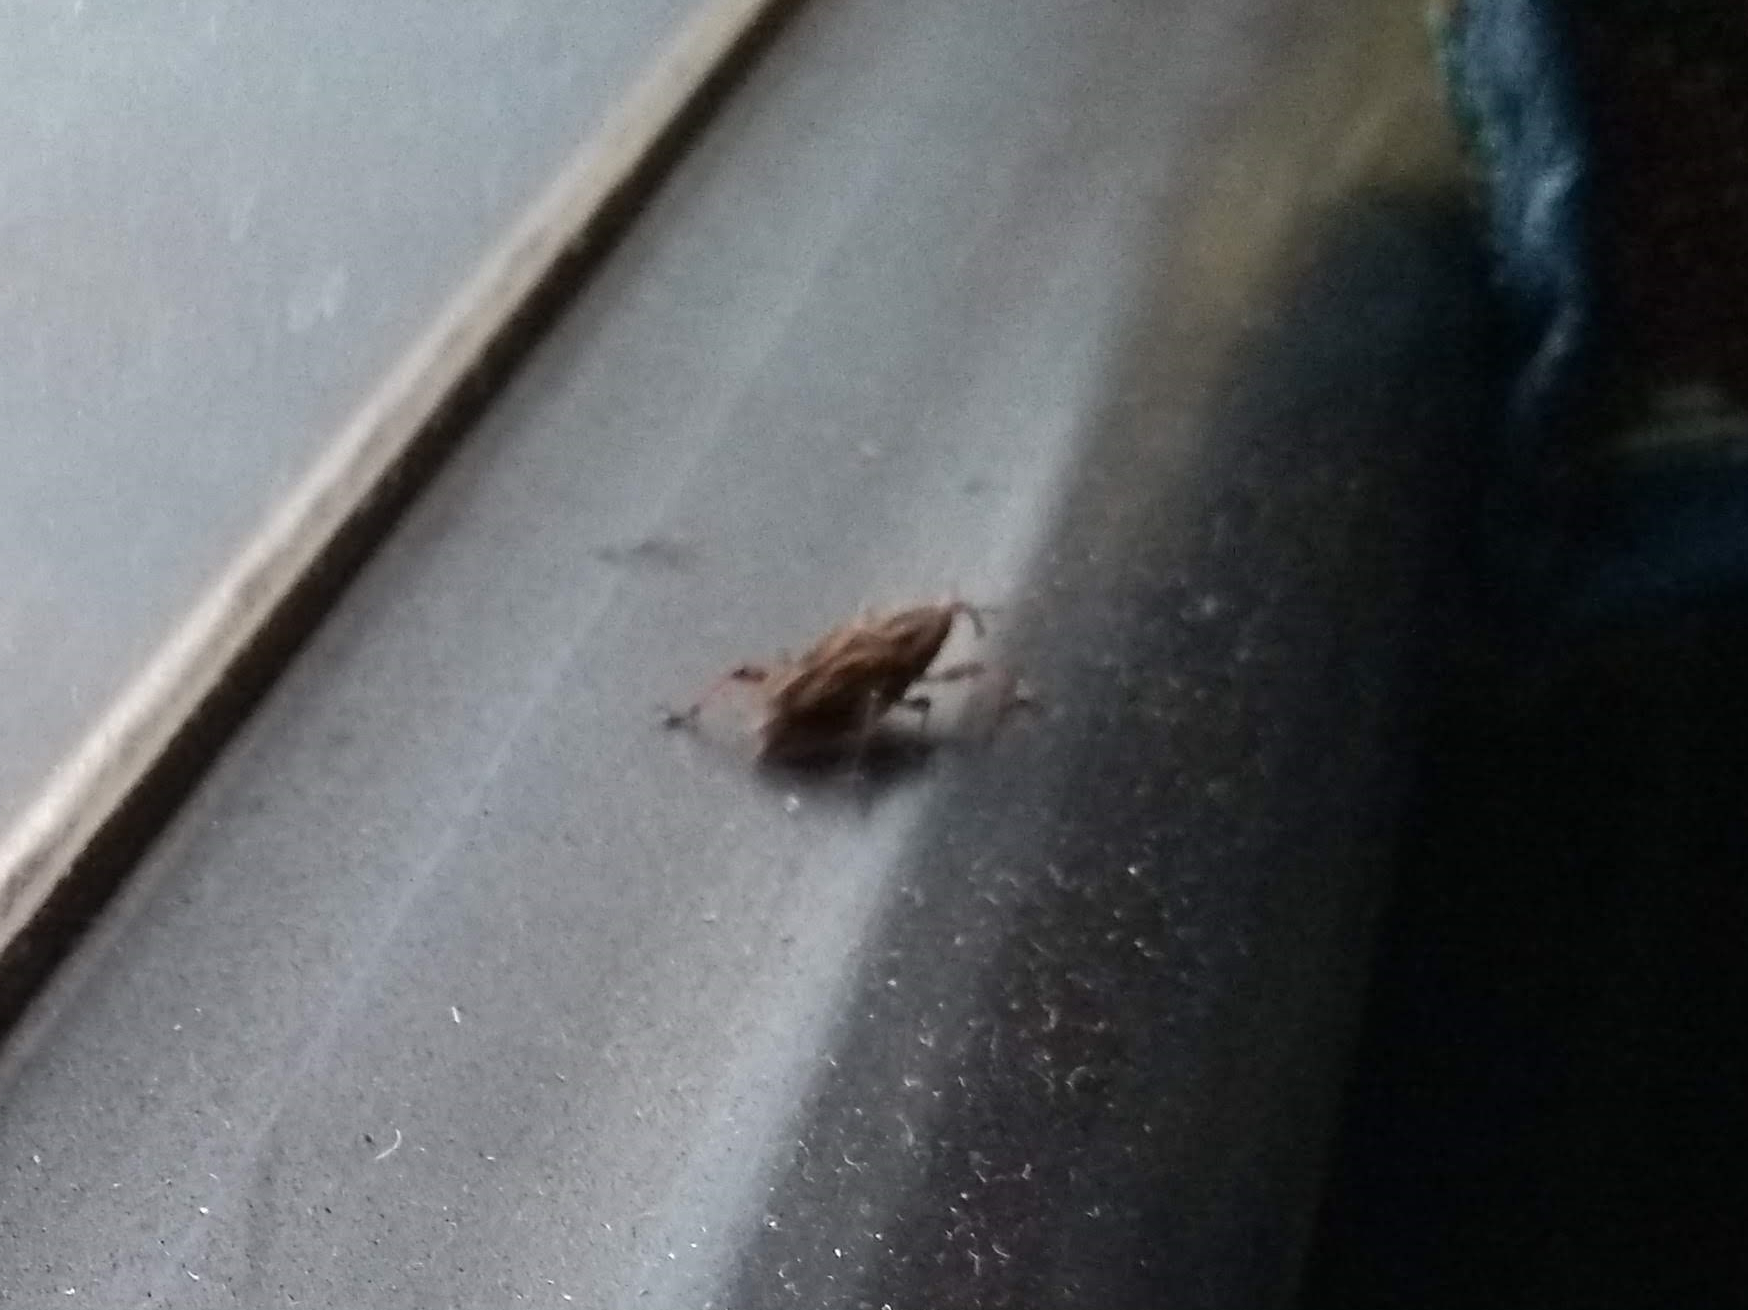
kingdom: Animalia
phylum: Arthropoda
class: Insecta
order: Coleoptera
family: Dryophthoridae
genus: Metamasius
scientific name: Metamasius hemipterus
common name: Weevil
